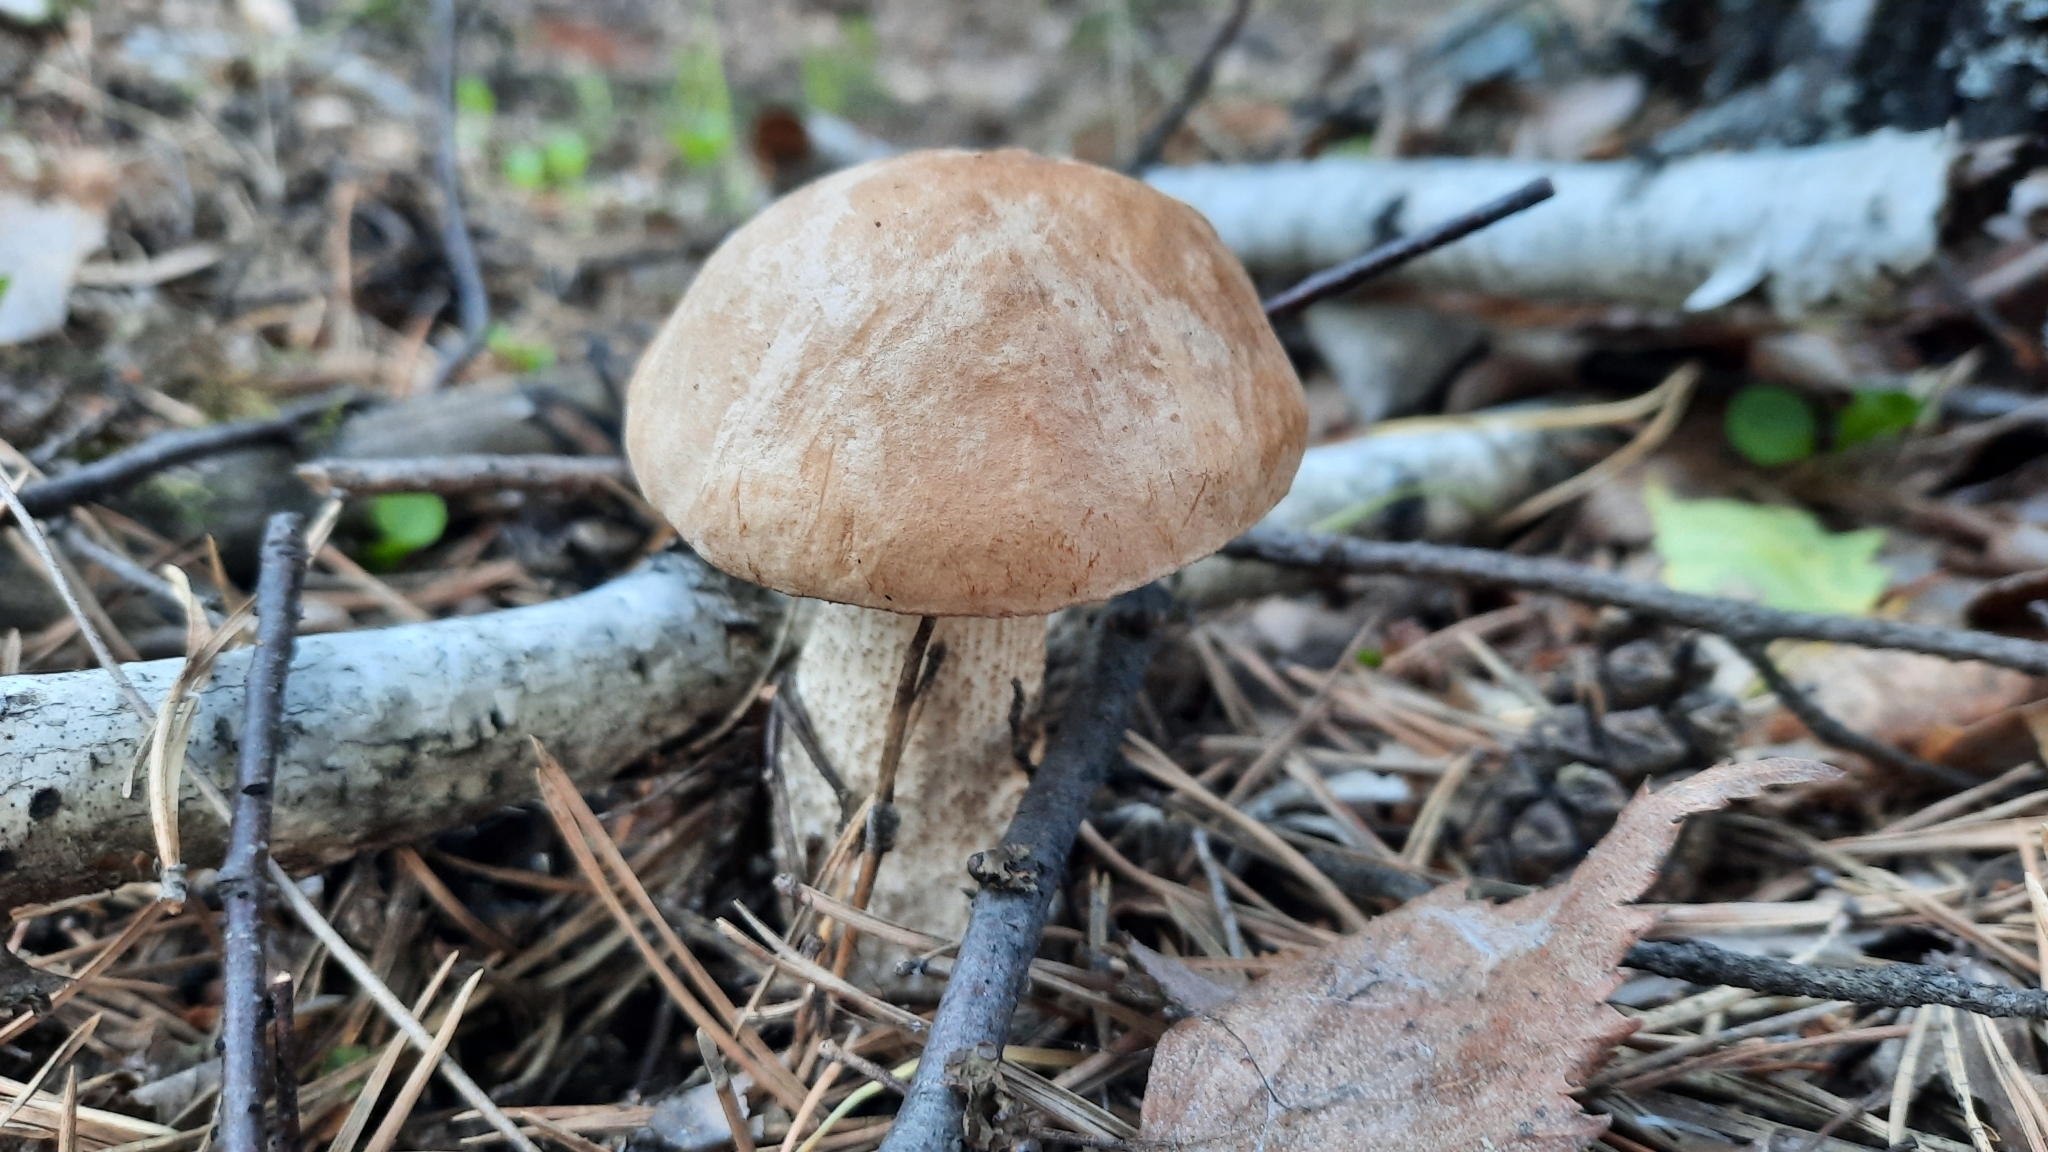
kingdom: Fungi
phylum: Basidiomycota
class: Agaricomycetes
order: Boletales
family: Boletaceae
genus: Leccinum
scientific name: Leccinum scabrum
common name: Blushing bolete
